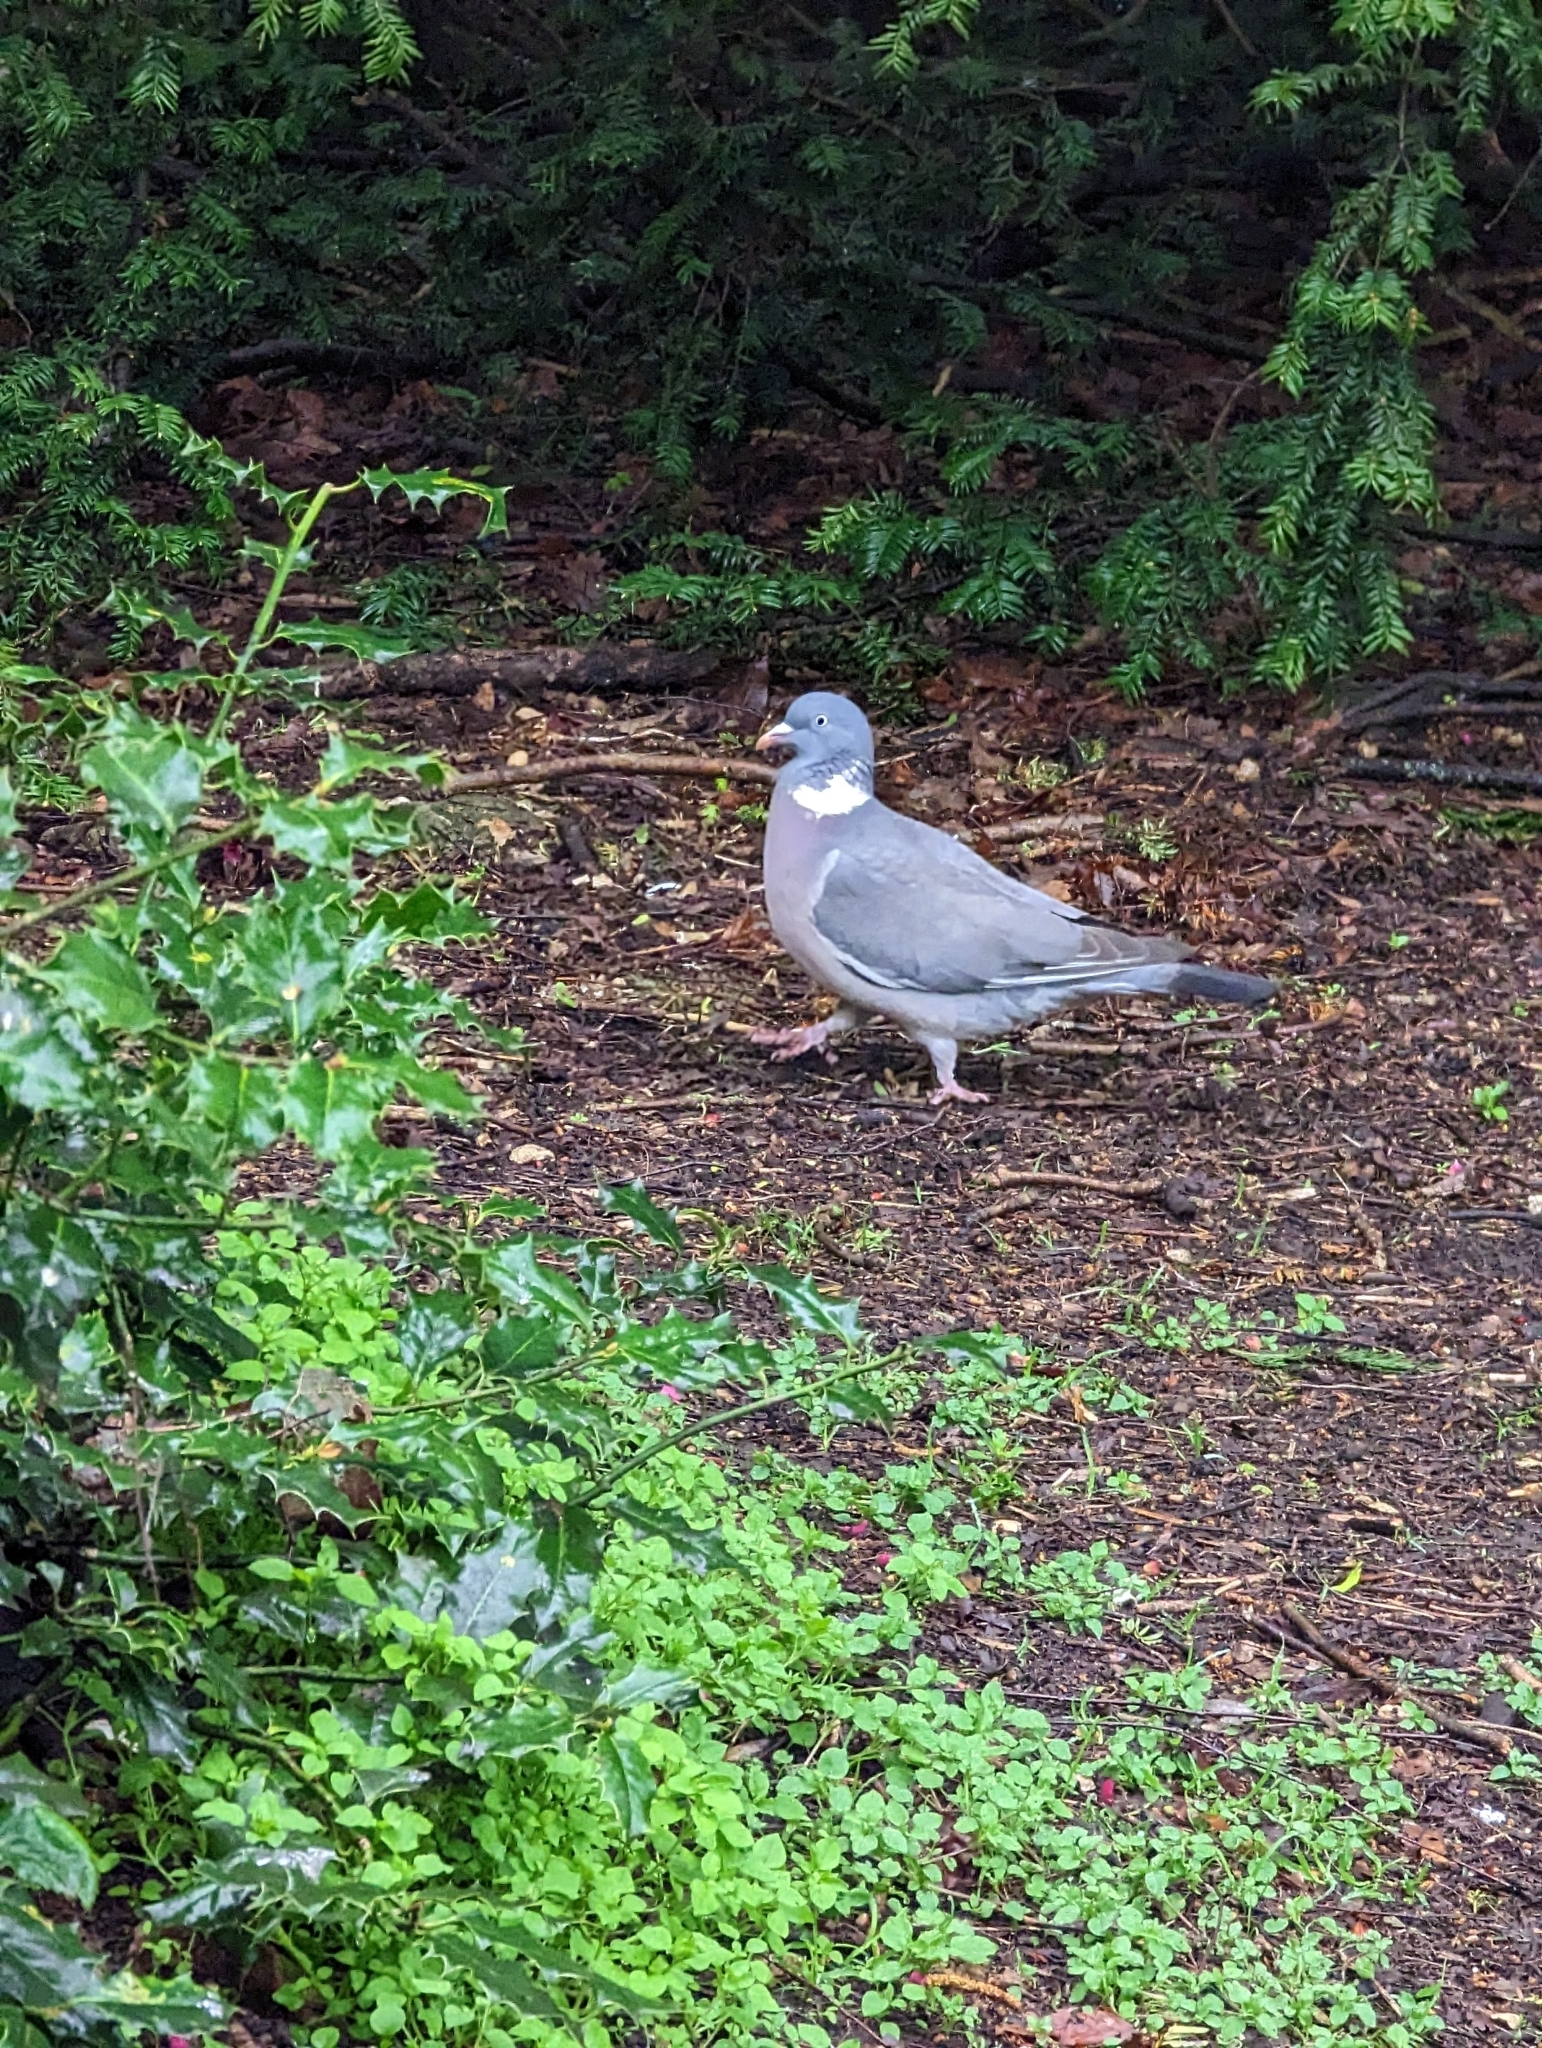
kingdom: Animalia
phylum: Chordata
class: Aves
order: Columbiformes
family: Columbidae
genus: Columba
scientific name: Columba palumbus
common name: Common wood pigeon
